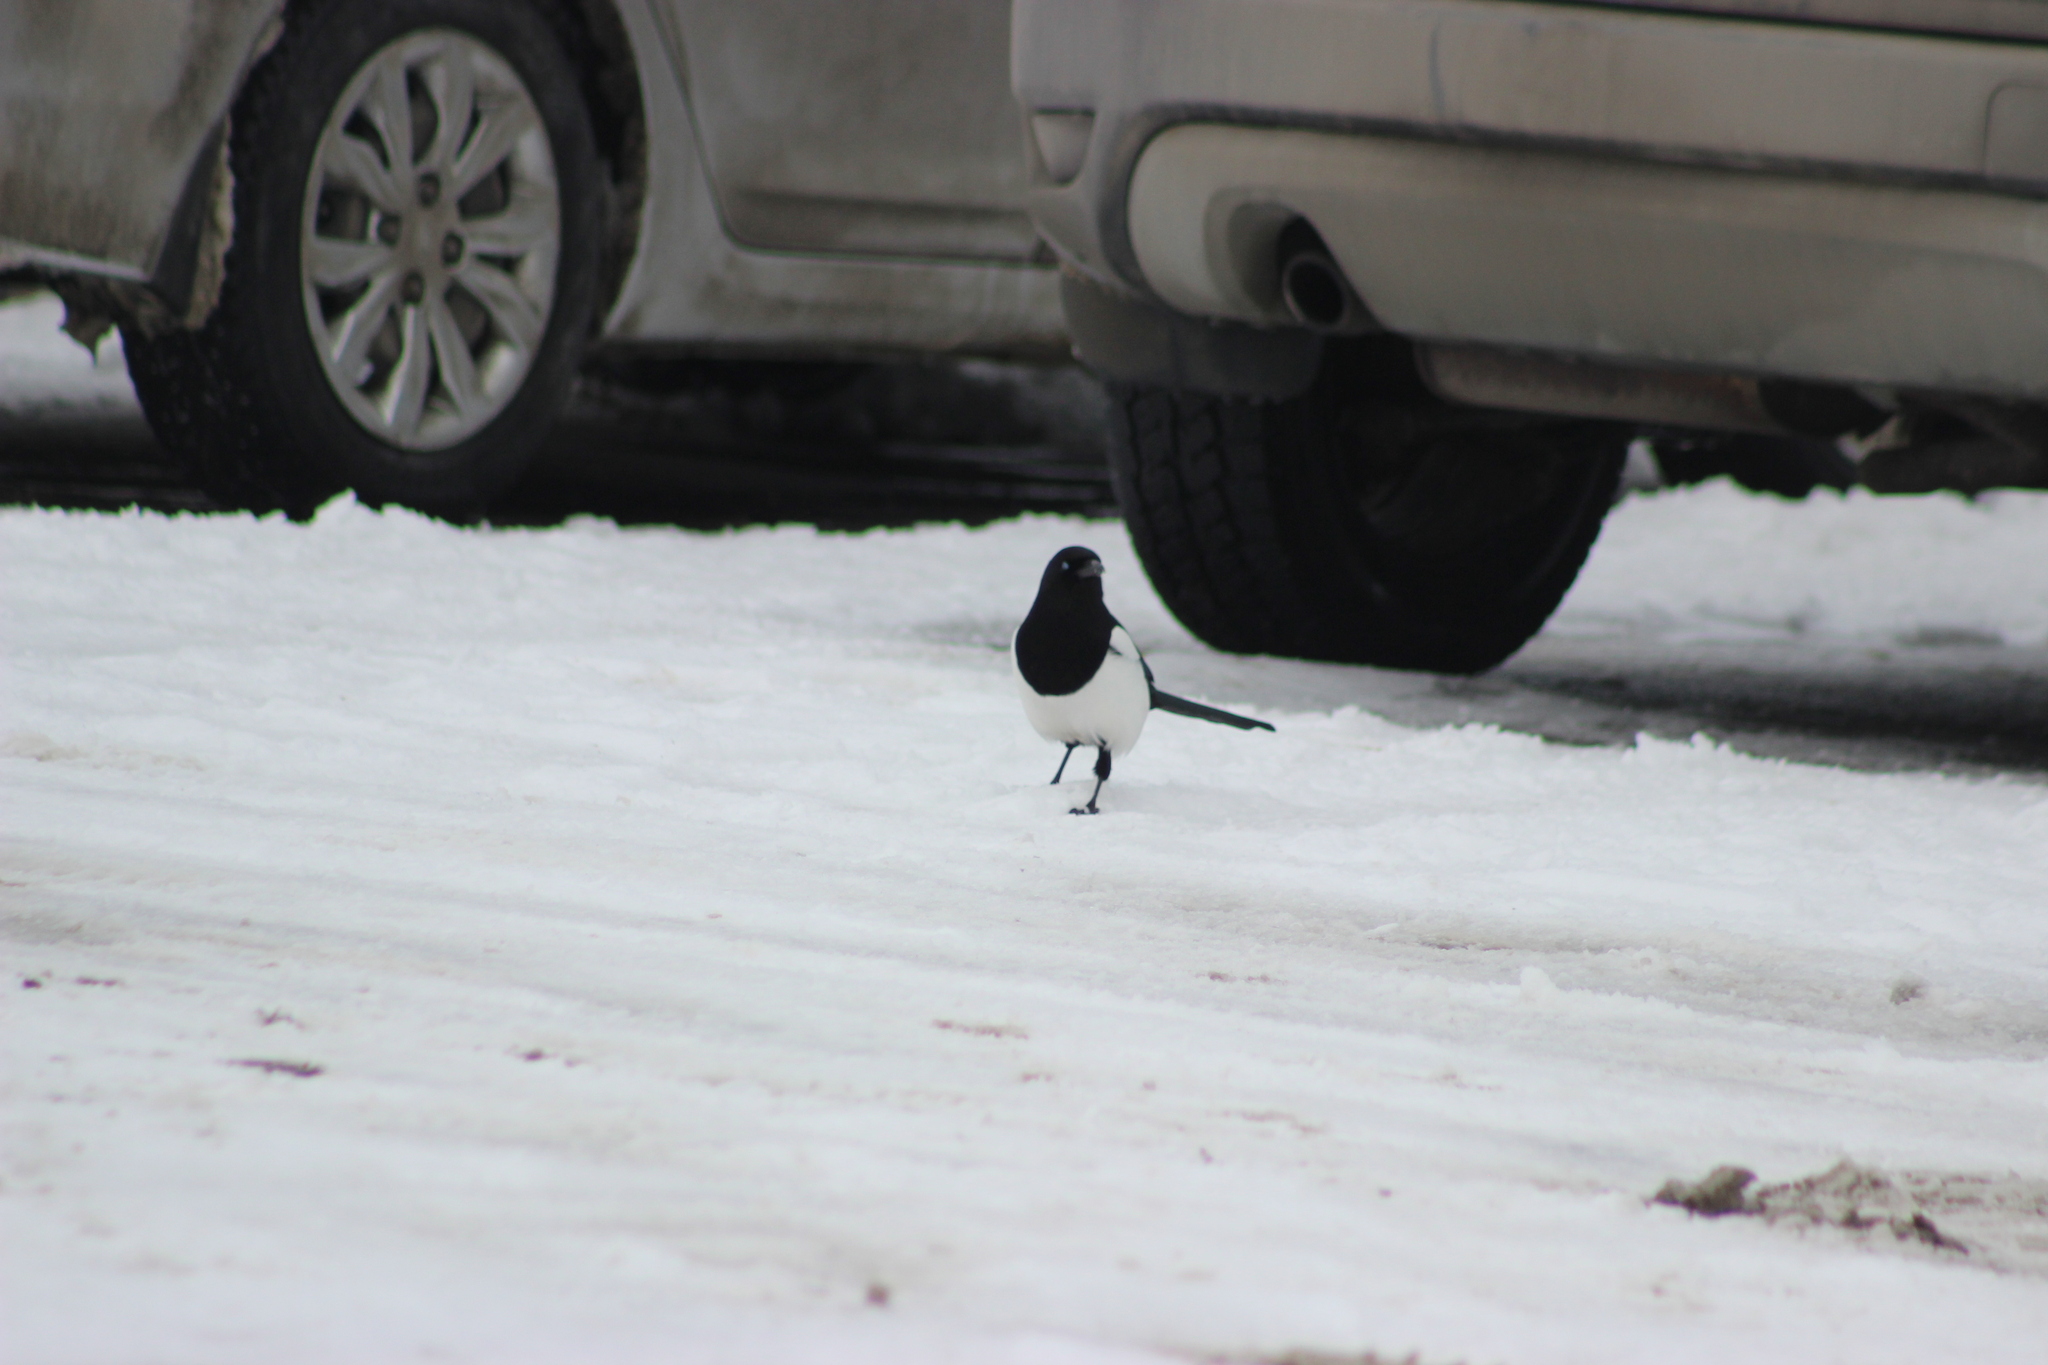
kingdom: Animalia
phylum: Chordata
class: Aves
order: Passeriformes
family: Corvidae
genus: Pica
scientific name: Pica pica
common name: Eurasian magpie
